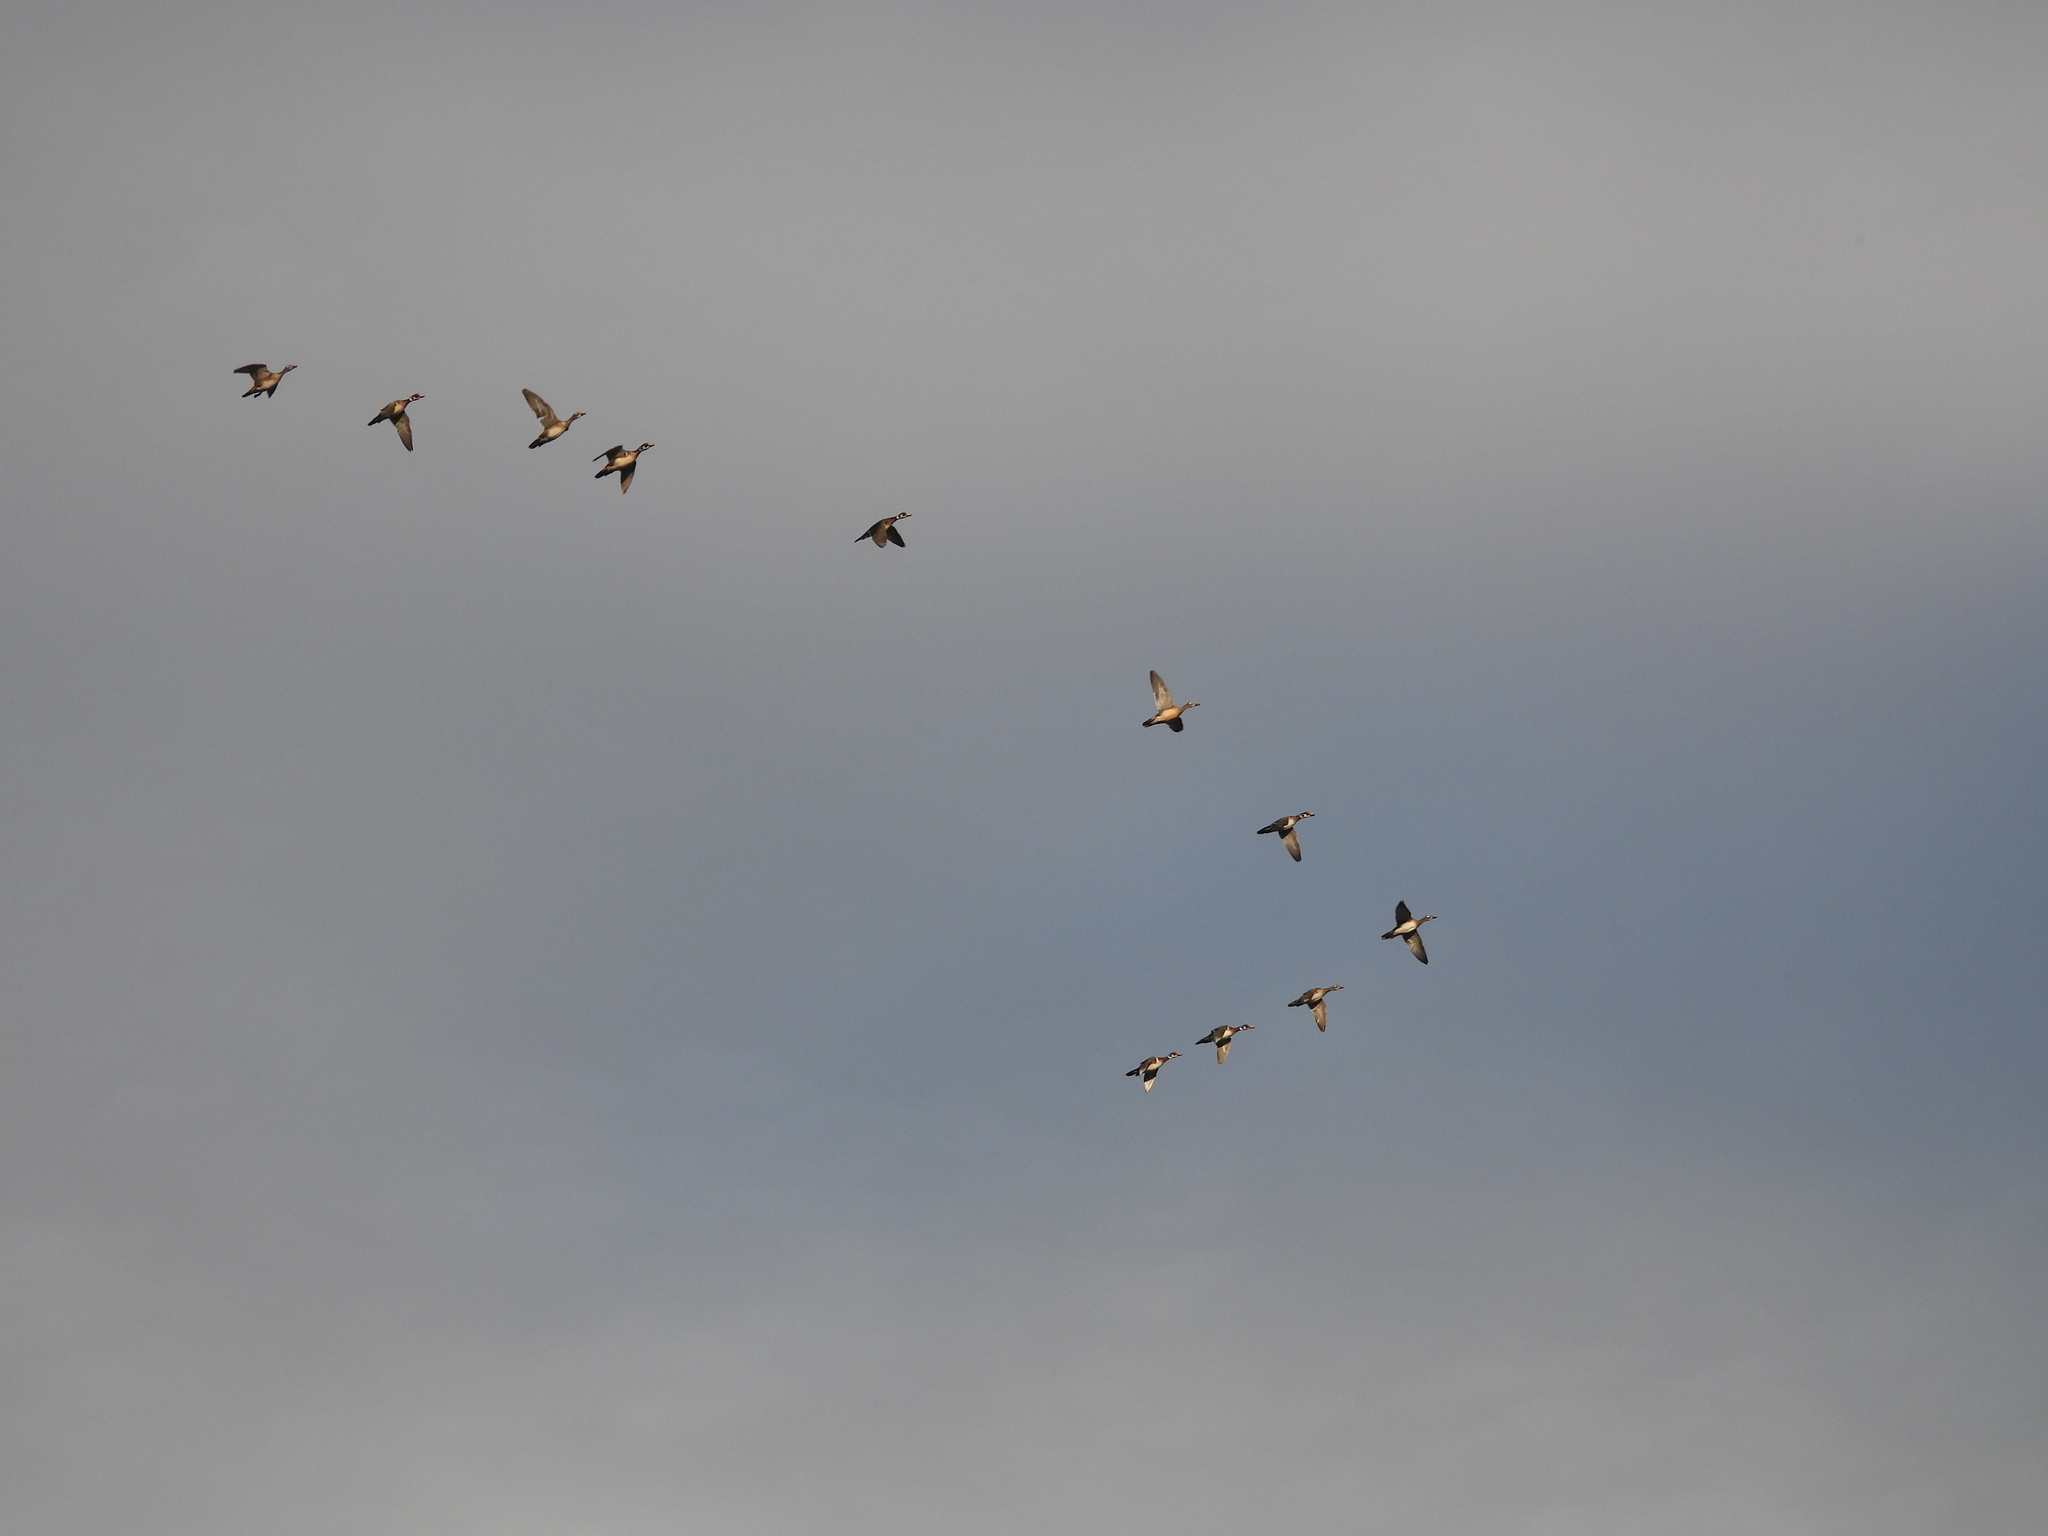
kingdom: Animalia
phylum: Chordata
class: Aves
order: Anseriformes
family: Anatidae
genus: Aix
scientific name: Aix sponsa
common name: Wood duck
